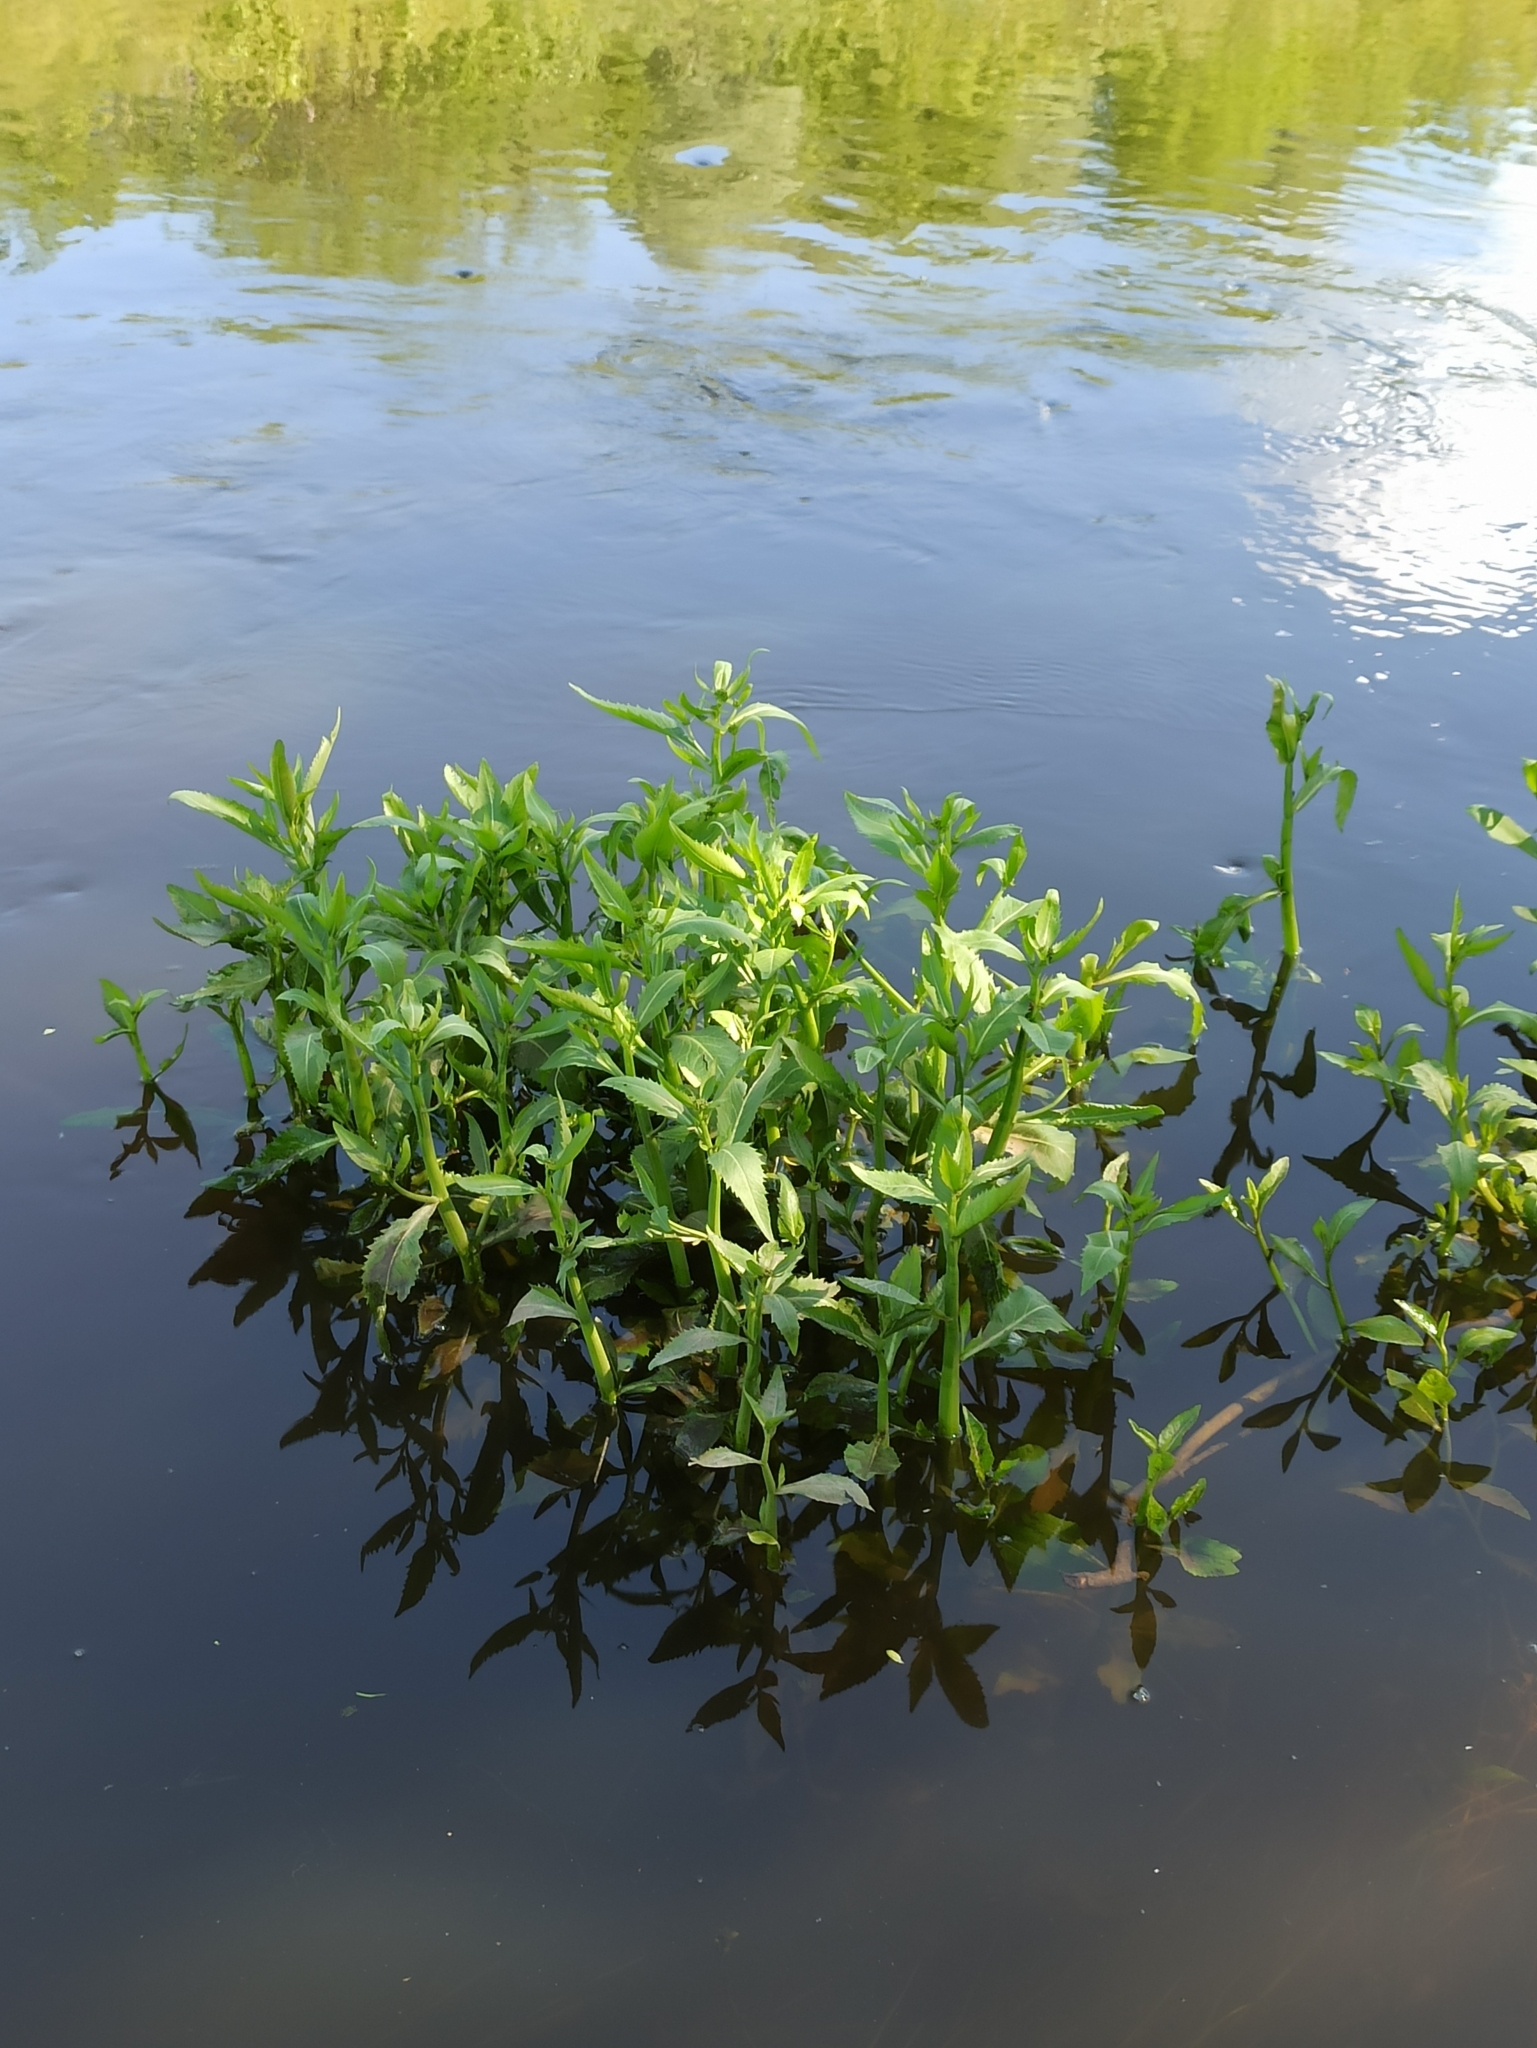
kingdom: Plantae
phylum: Tracheophyta
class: Magnoliopsida
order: Brassicales
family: Brassicaceae
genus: Rorippa
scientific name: Rorippa amphibia
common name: Great yellow-cress
